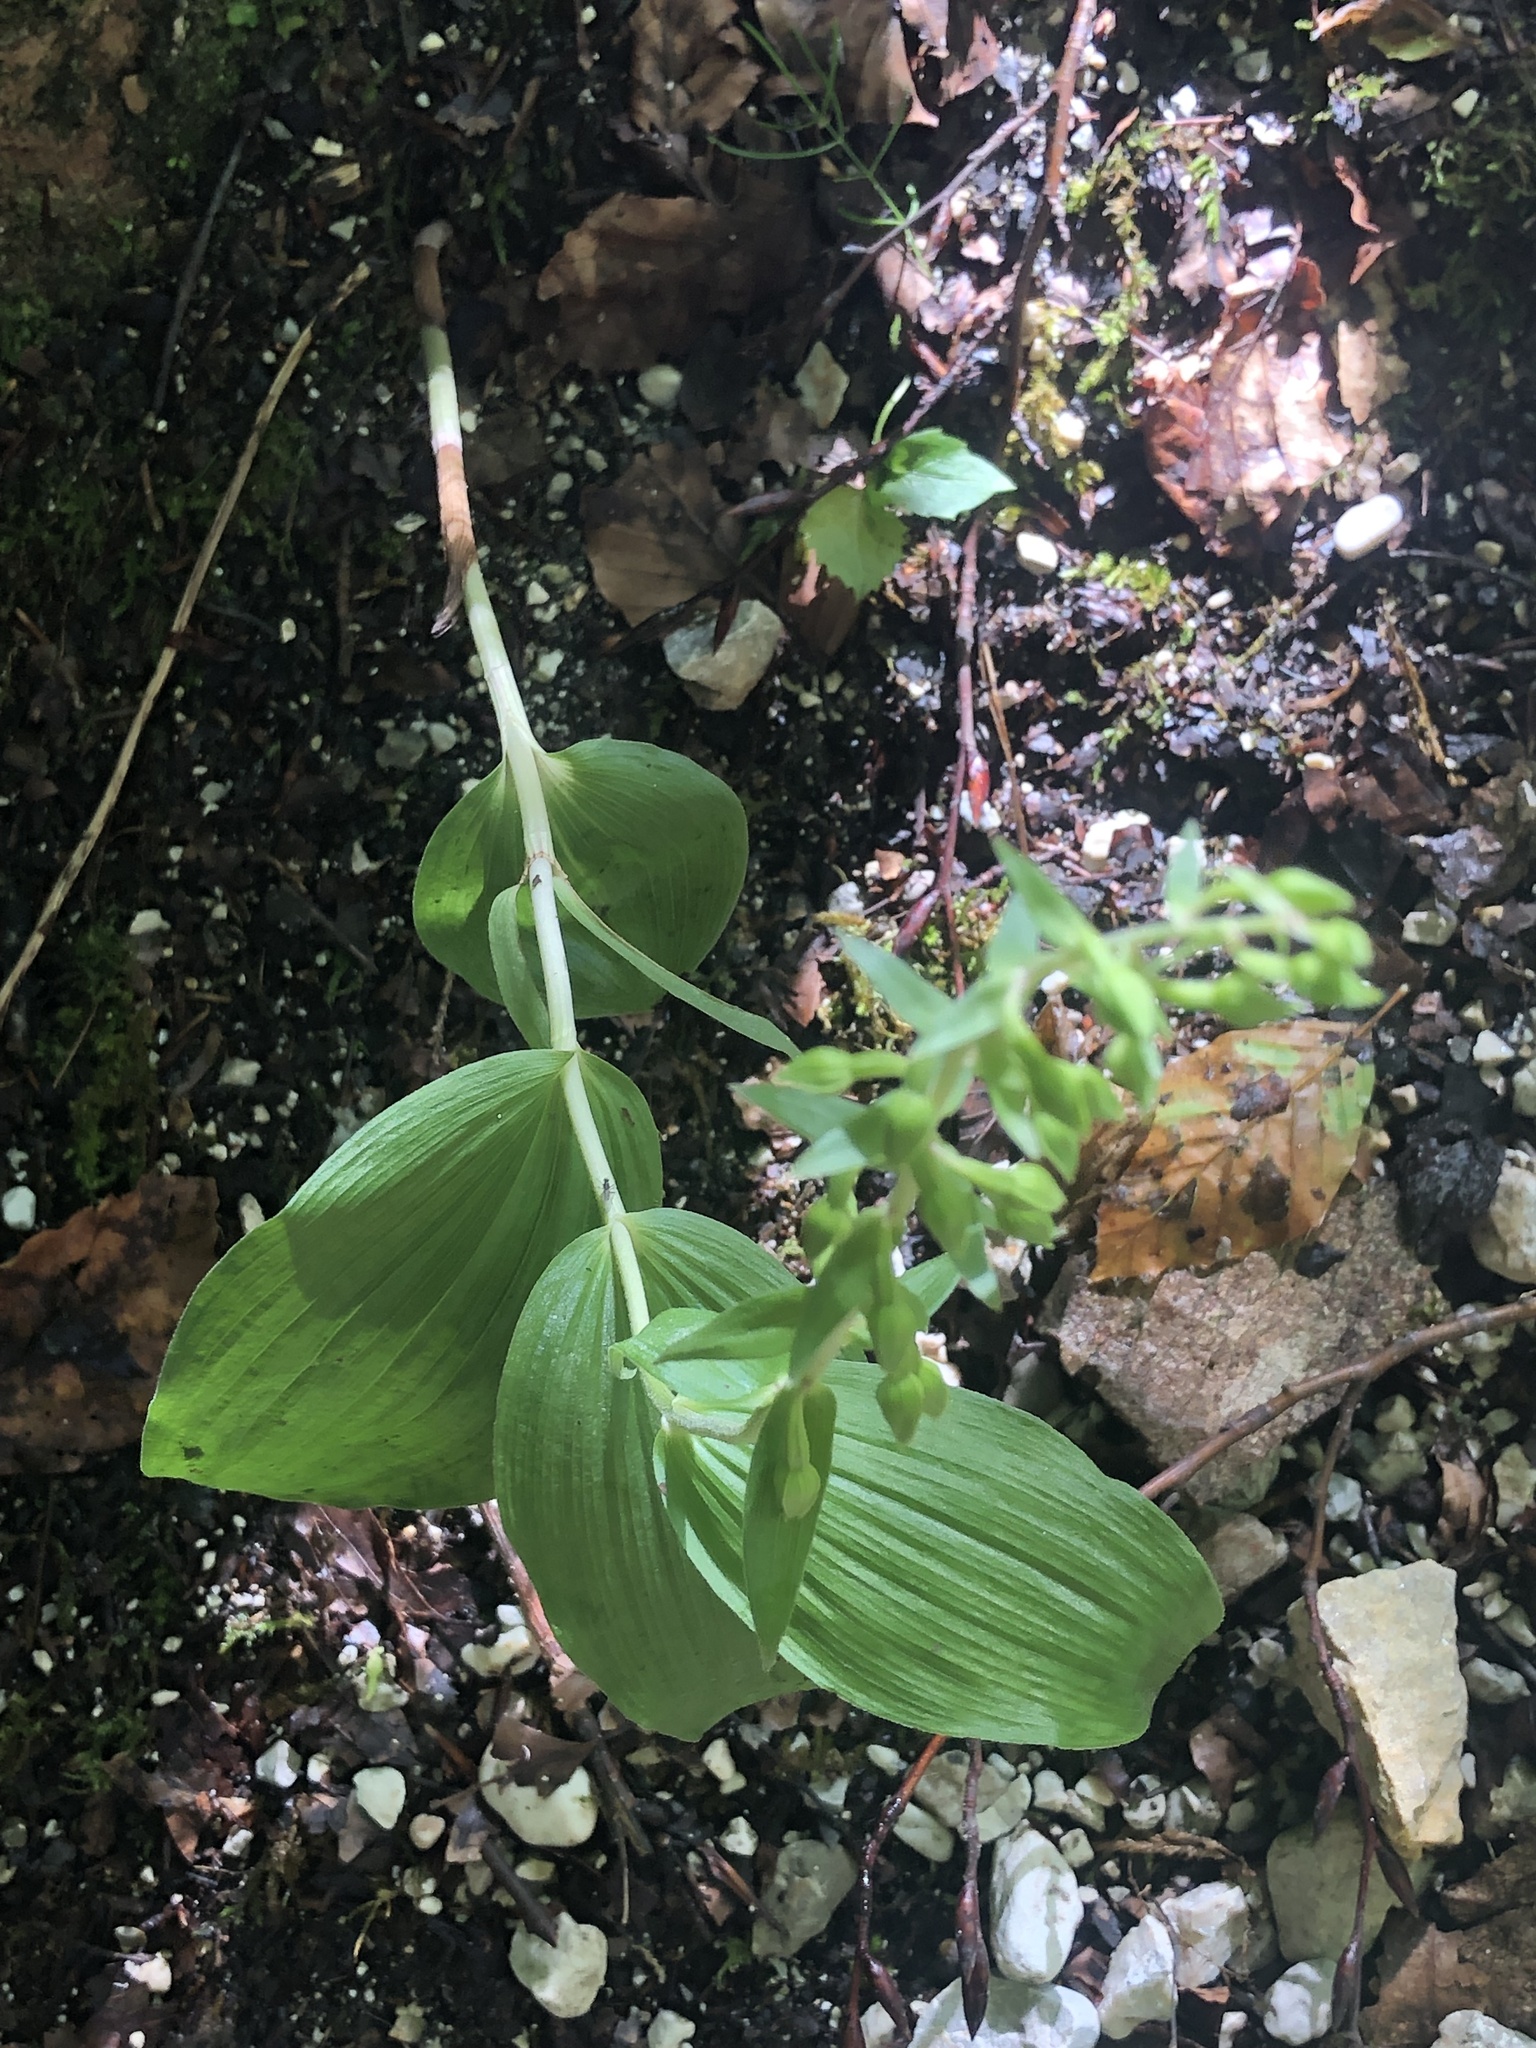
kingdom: Plantae
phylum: Tracheophyta
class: Liliopsida
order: Asparagales
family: Orchidaceae
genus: Epipactis
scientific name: Epipactis helleborine
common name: Broad-leaved helleborine
